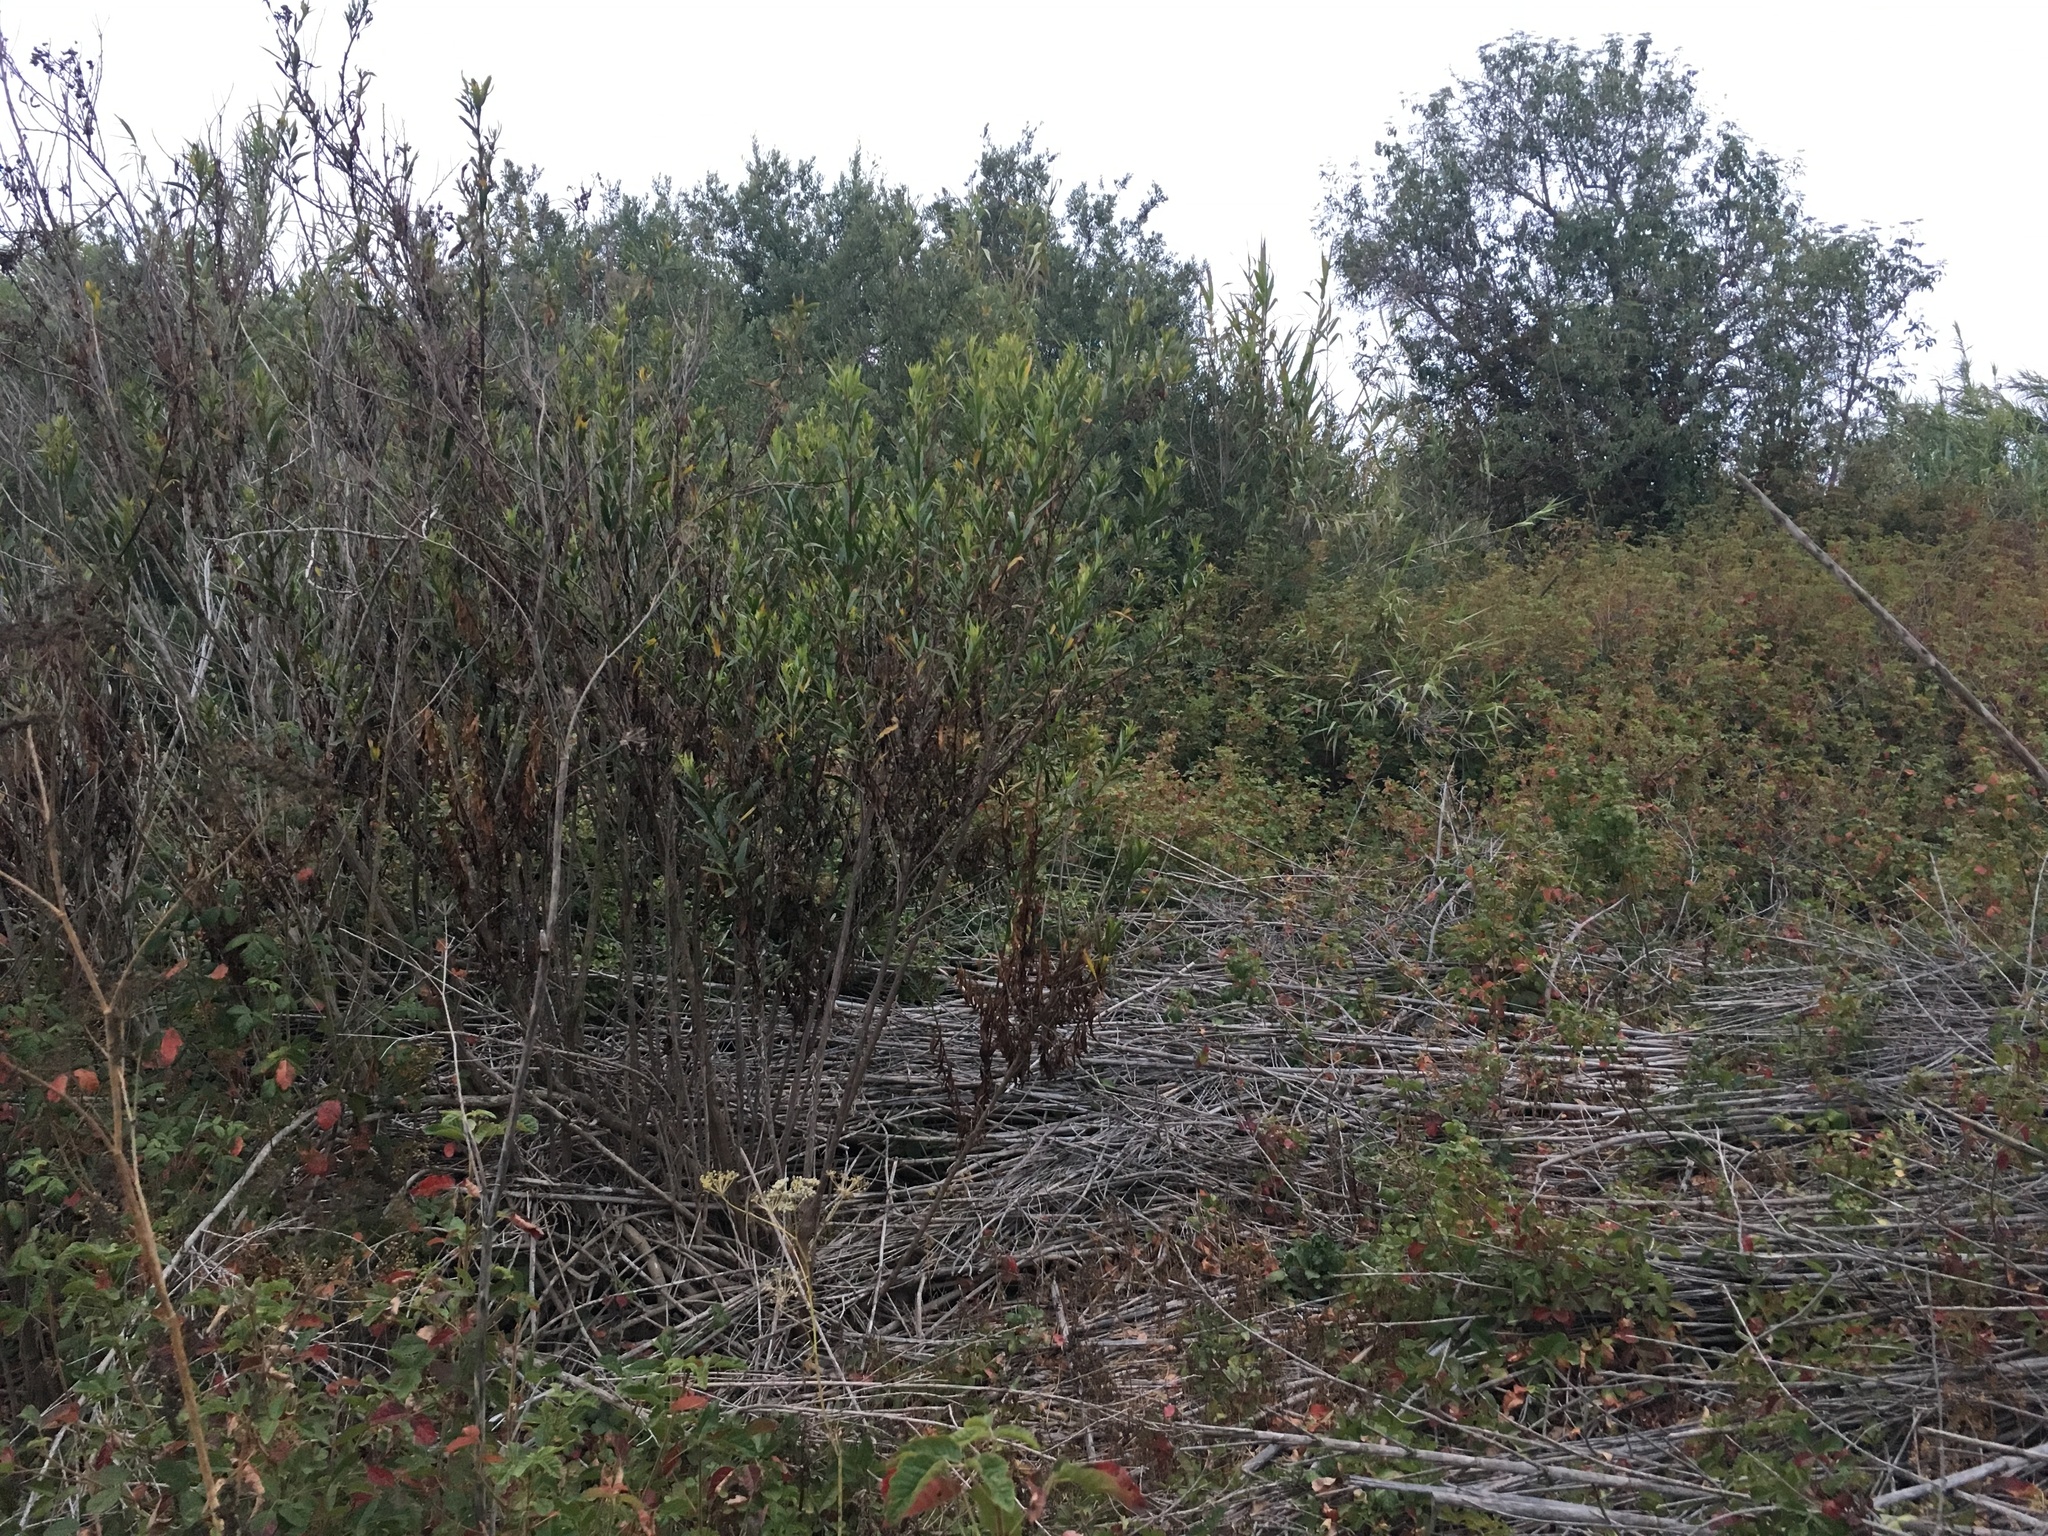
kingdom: Plantae
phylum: Tracheophyta
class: Magnoliopsida
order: Sapindales
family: Anacardiaceae
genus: Toxicodendron
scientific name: Toxicodendron diversilobum
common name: Pacific poison-oak
